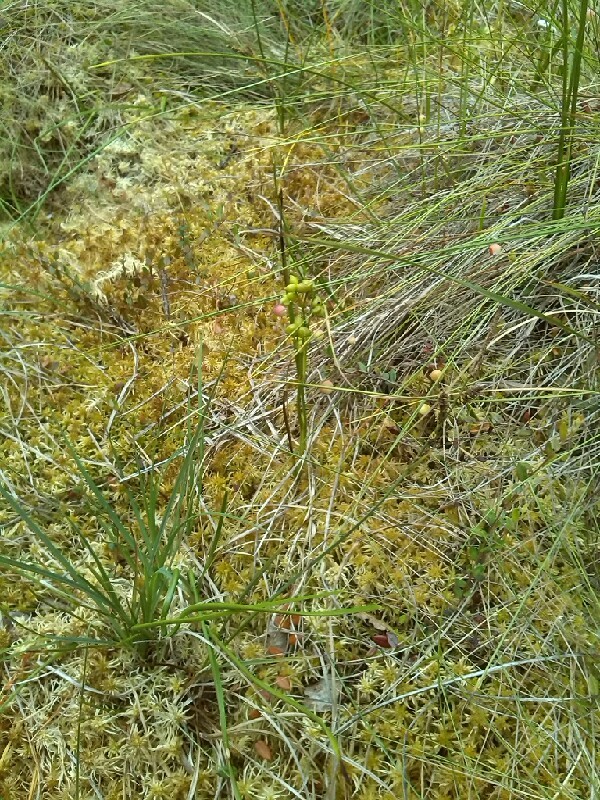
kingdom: Plantae
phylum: Tracheophyta
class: Liliopsida
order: Alismatales
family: Scheuchzeriaceae
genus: Scheuchzeria
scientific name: Scheuchzeria palustris
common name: Rannoch-rush
